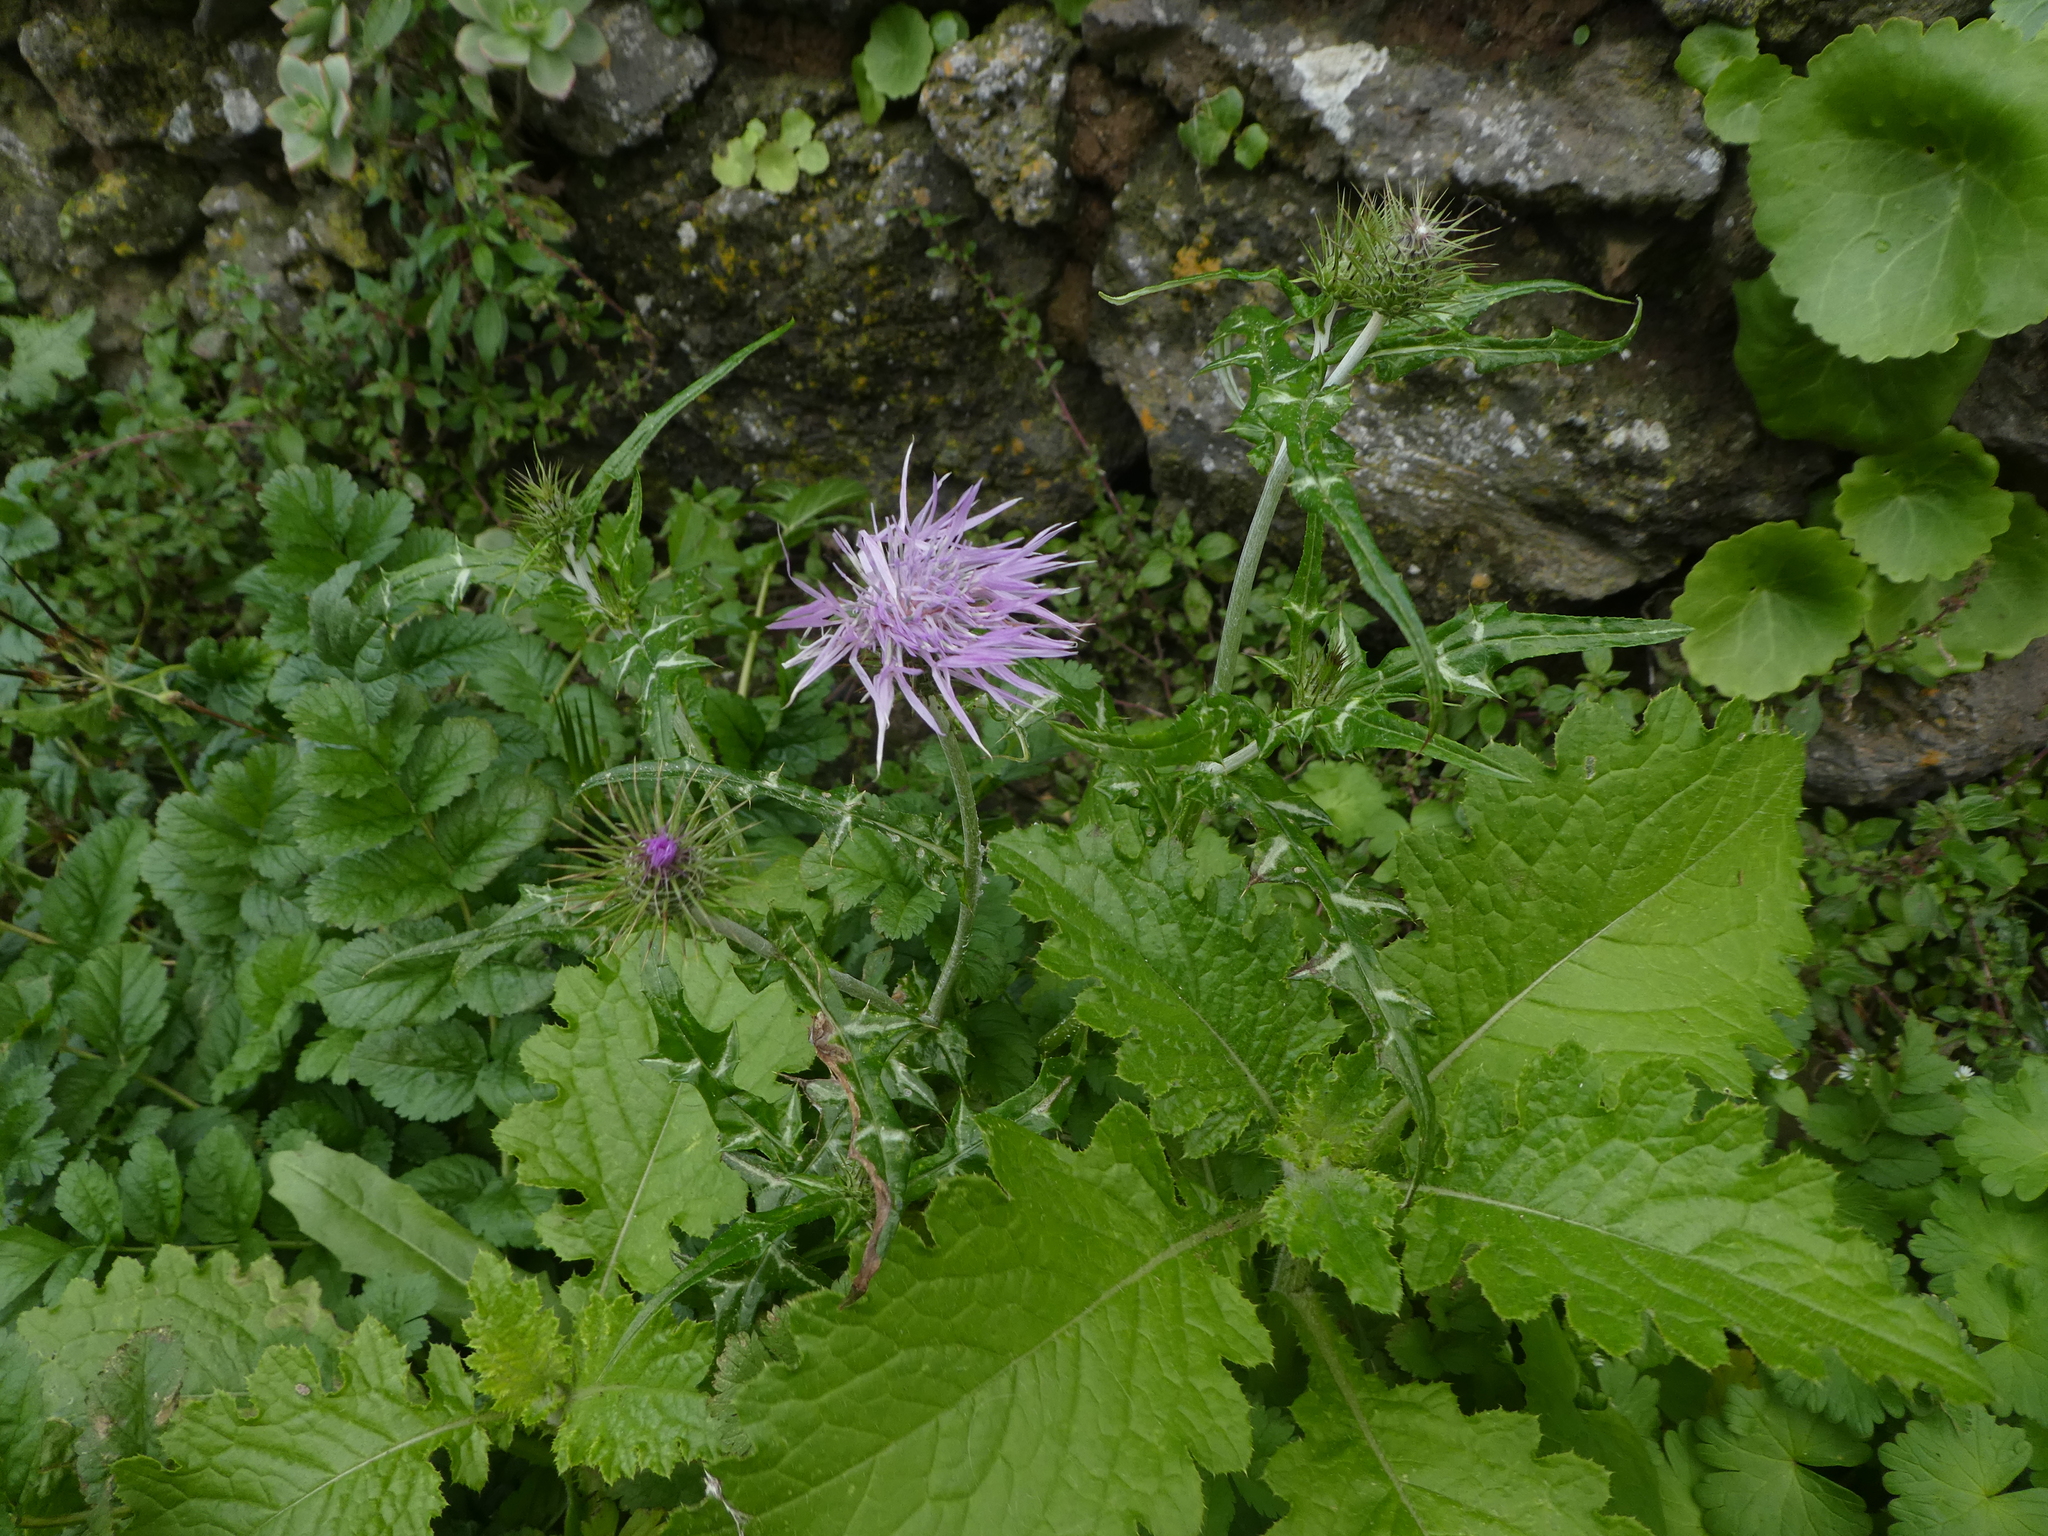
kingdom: Plantae
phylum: Tracheophyta
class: Magnoliopsida
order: Asterales
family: Asteraceae
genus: Galactites
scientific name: Galactites tomentosa
